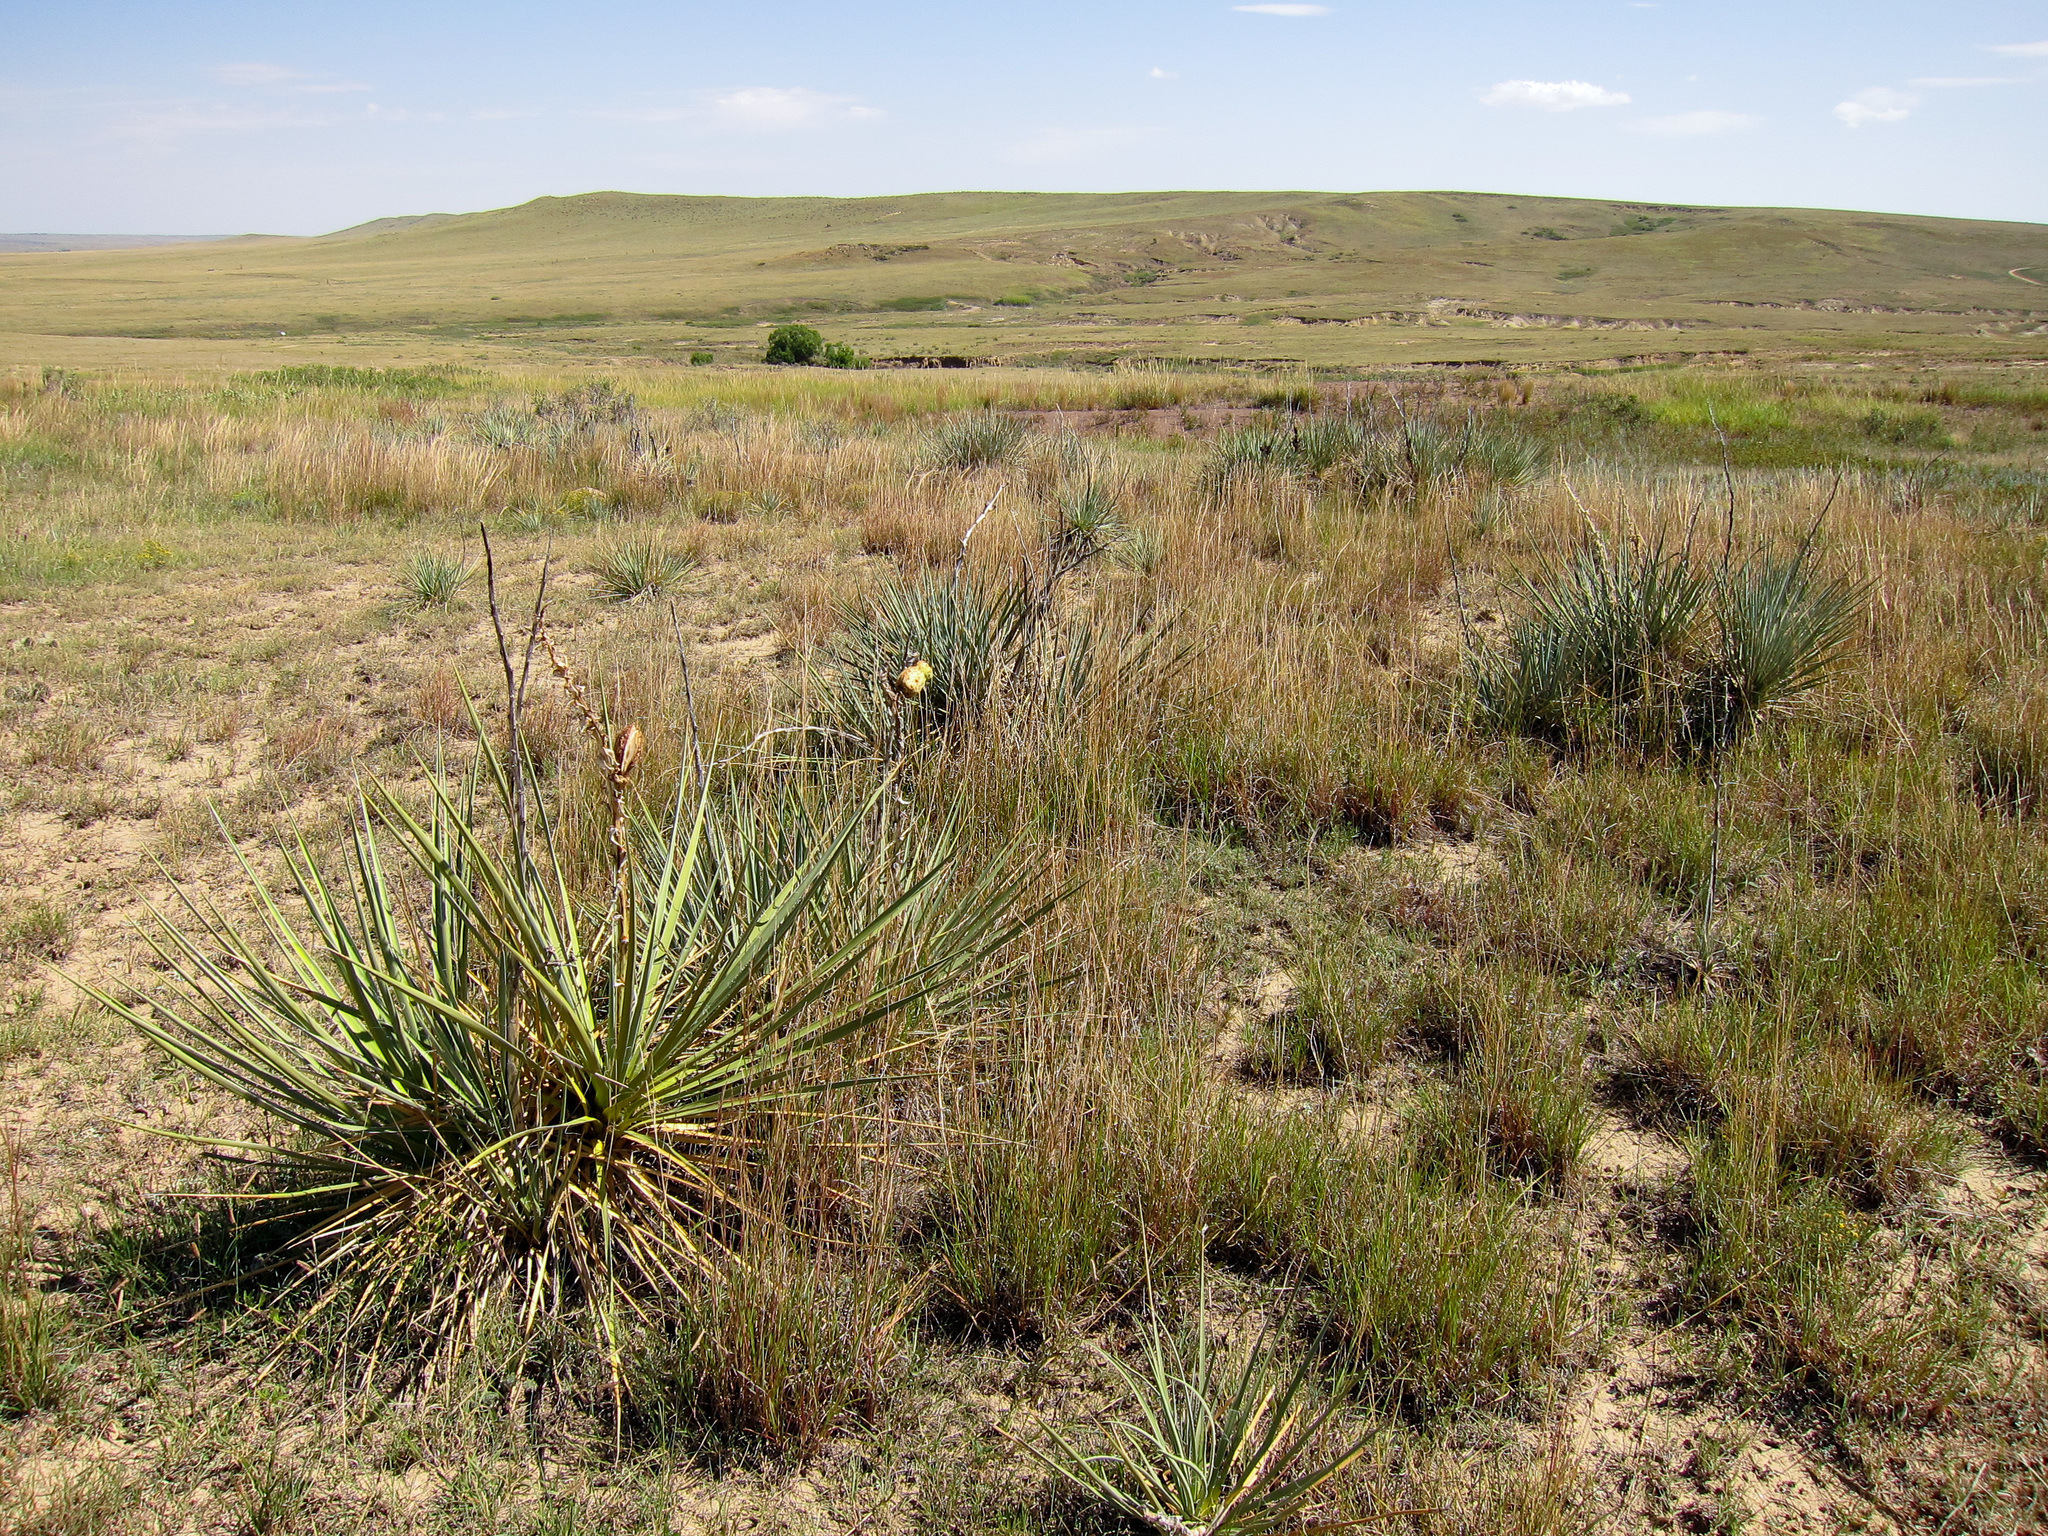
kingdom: Plantae
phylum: Tracheophyta
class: Liliopsida
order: Asparagales
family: Asparagaceae
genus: Yucca
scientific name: Yucca glauca
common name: Great plains yucca
